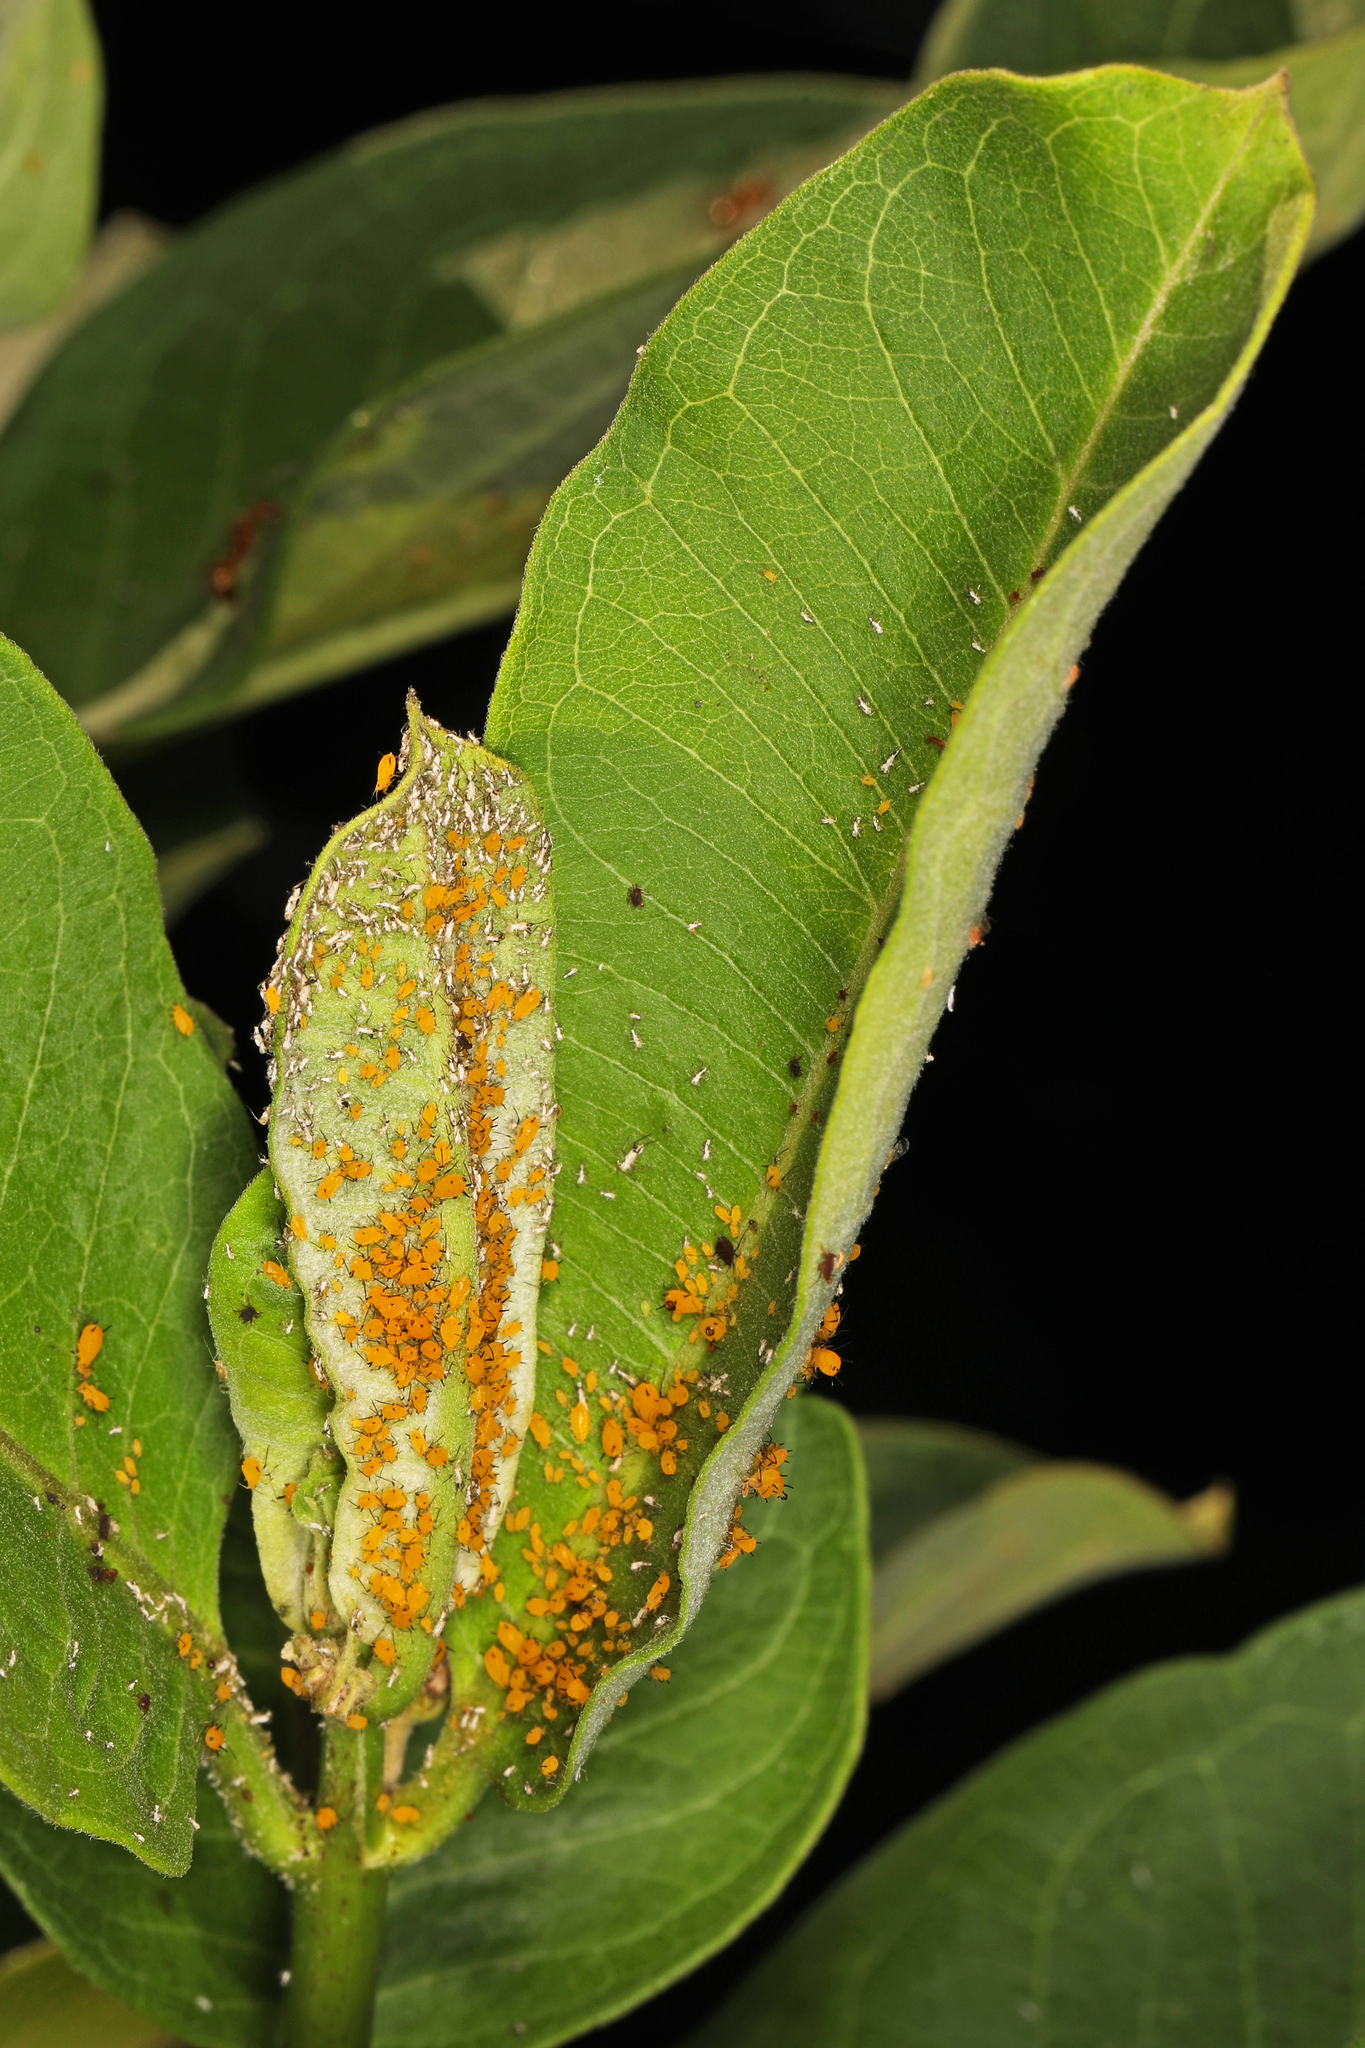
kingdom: Animalia
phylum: Arthropoda
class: Insecta
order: Hemiptera
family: Aphididae
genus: Aphis
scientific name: Aphis nerii
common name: Oleander aphid
